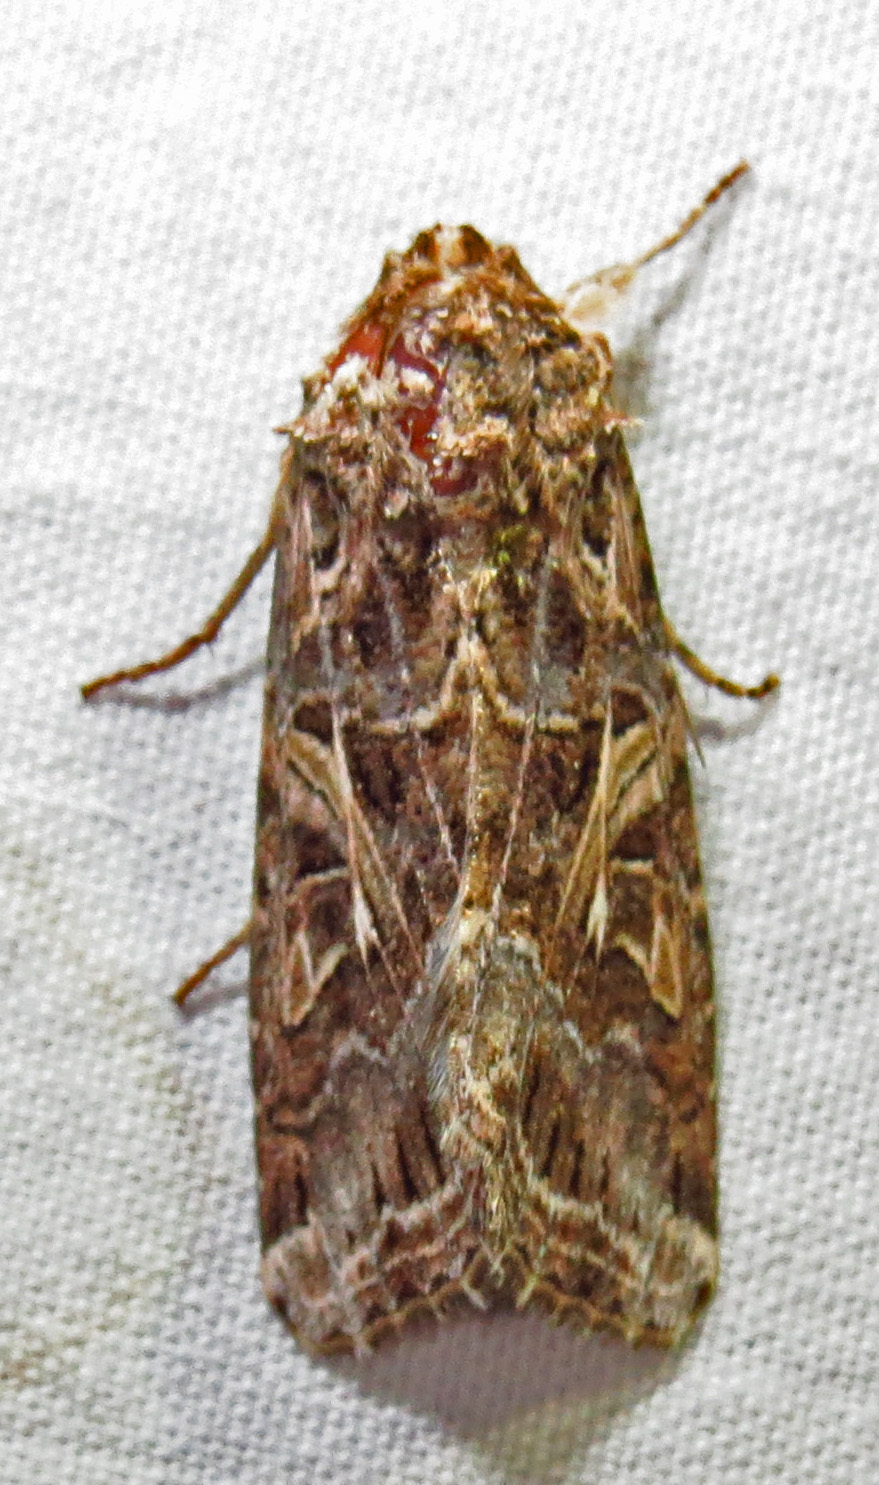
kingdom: Animalia
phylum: Arthropoda
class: Insecta
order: Lepidoptera
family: Noctuidae
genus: Spodoptera
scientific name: Spodoptera ornithogalli
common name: Yellow-striped armyworm
